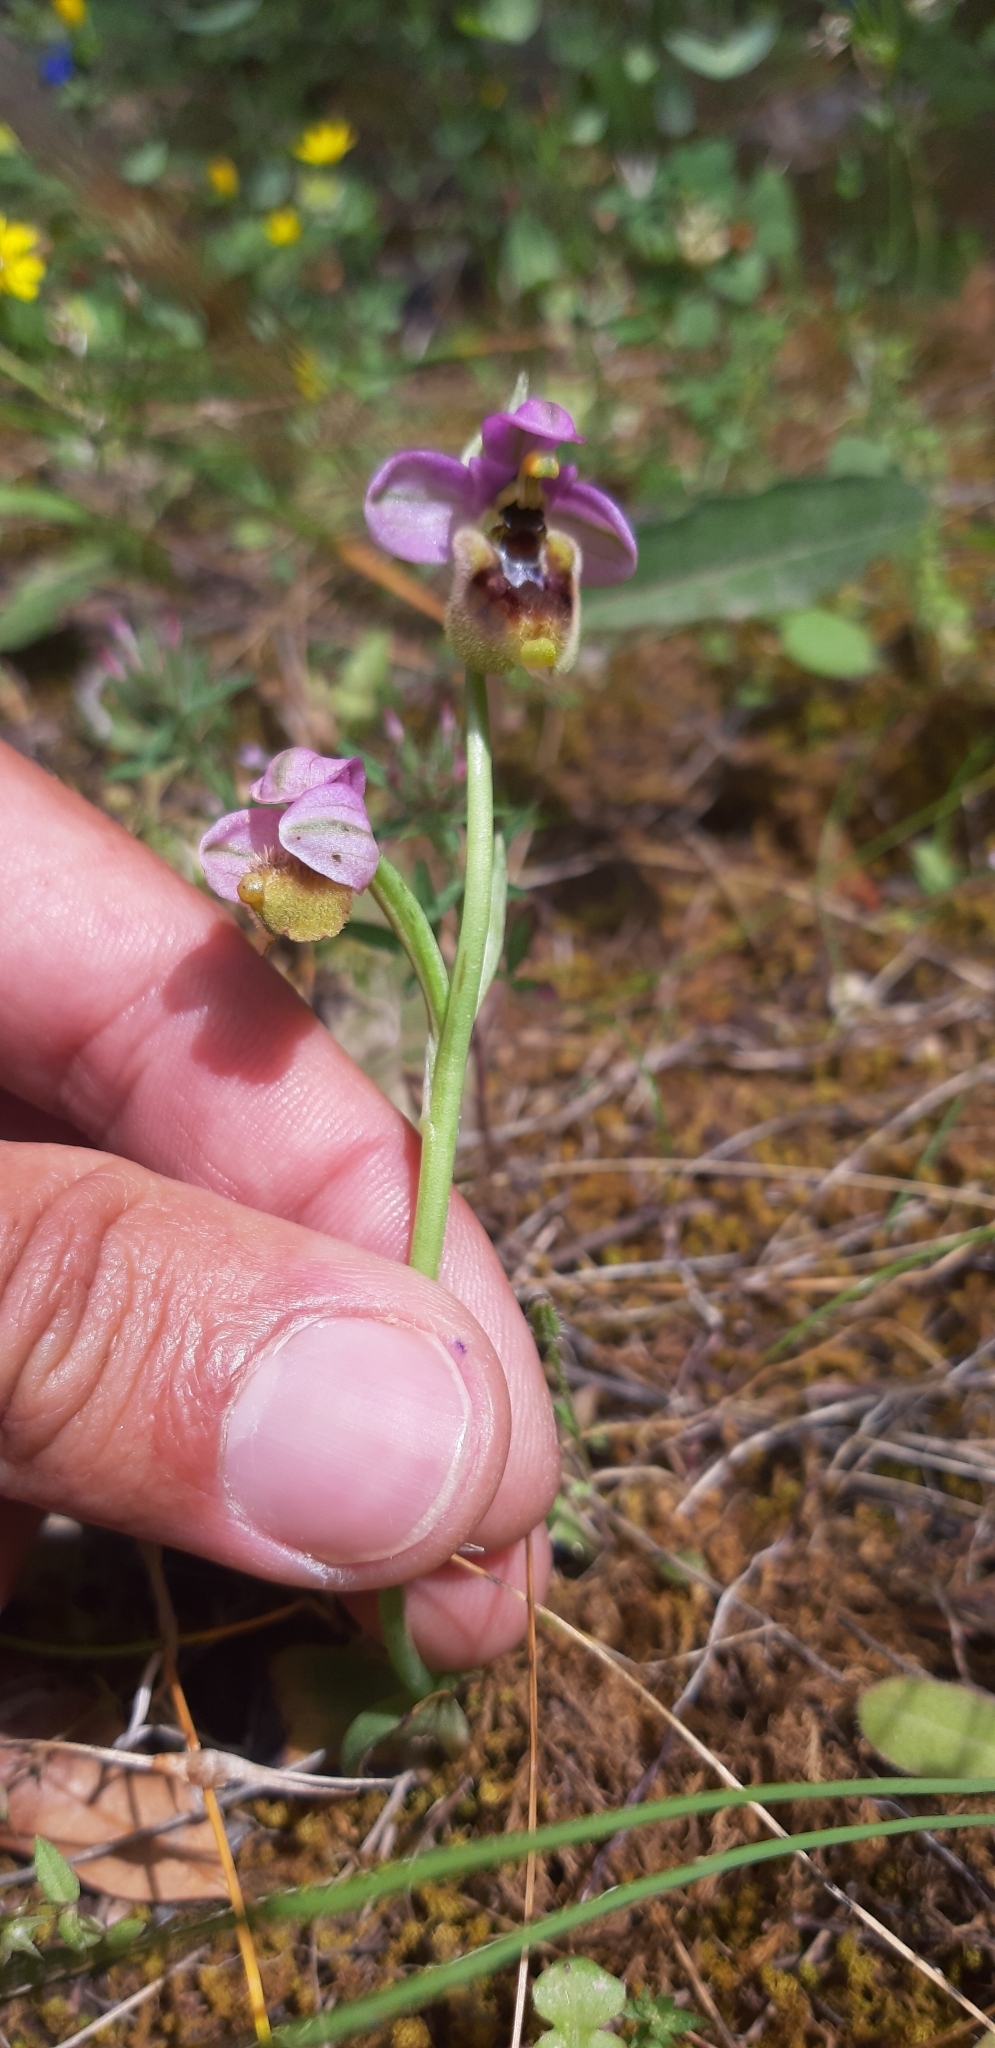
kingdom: Plantae
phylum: Tracheophyta
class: Liliopsida
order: Asparagales
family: Orchidaceae
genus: Ophrys
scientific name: Ophrys tenthredinifera
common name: Sawfly orchid
